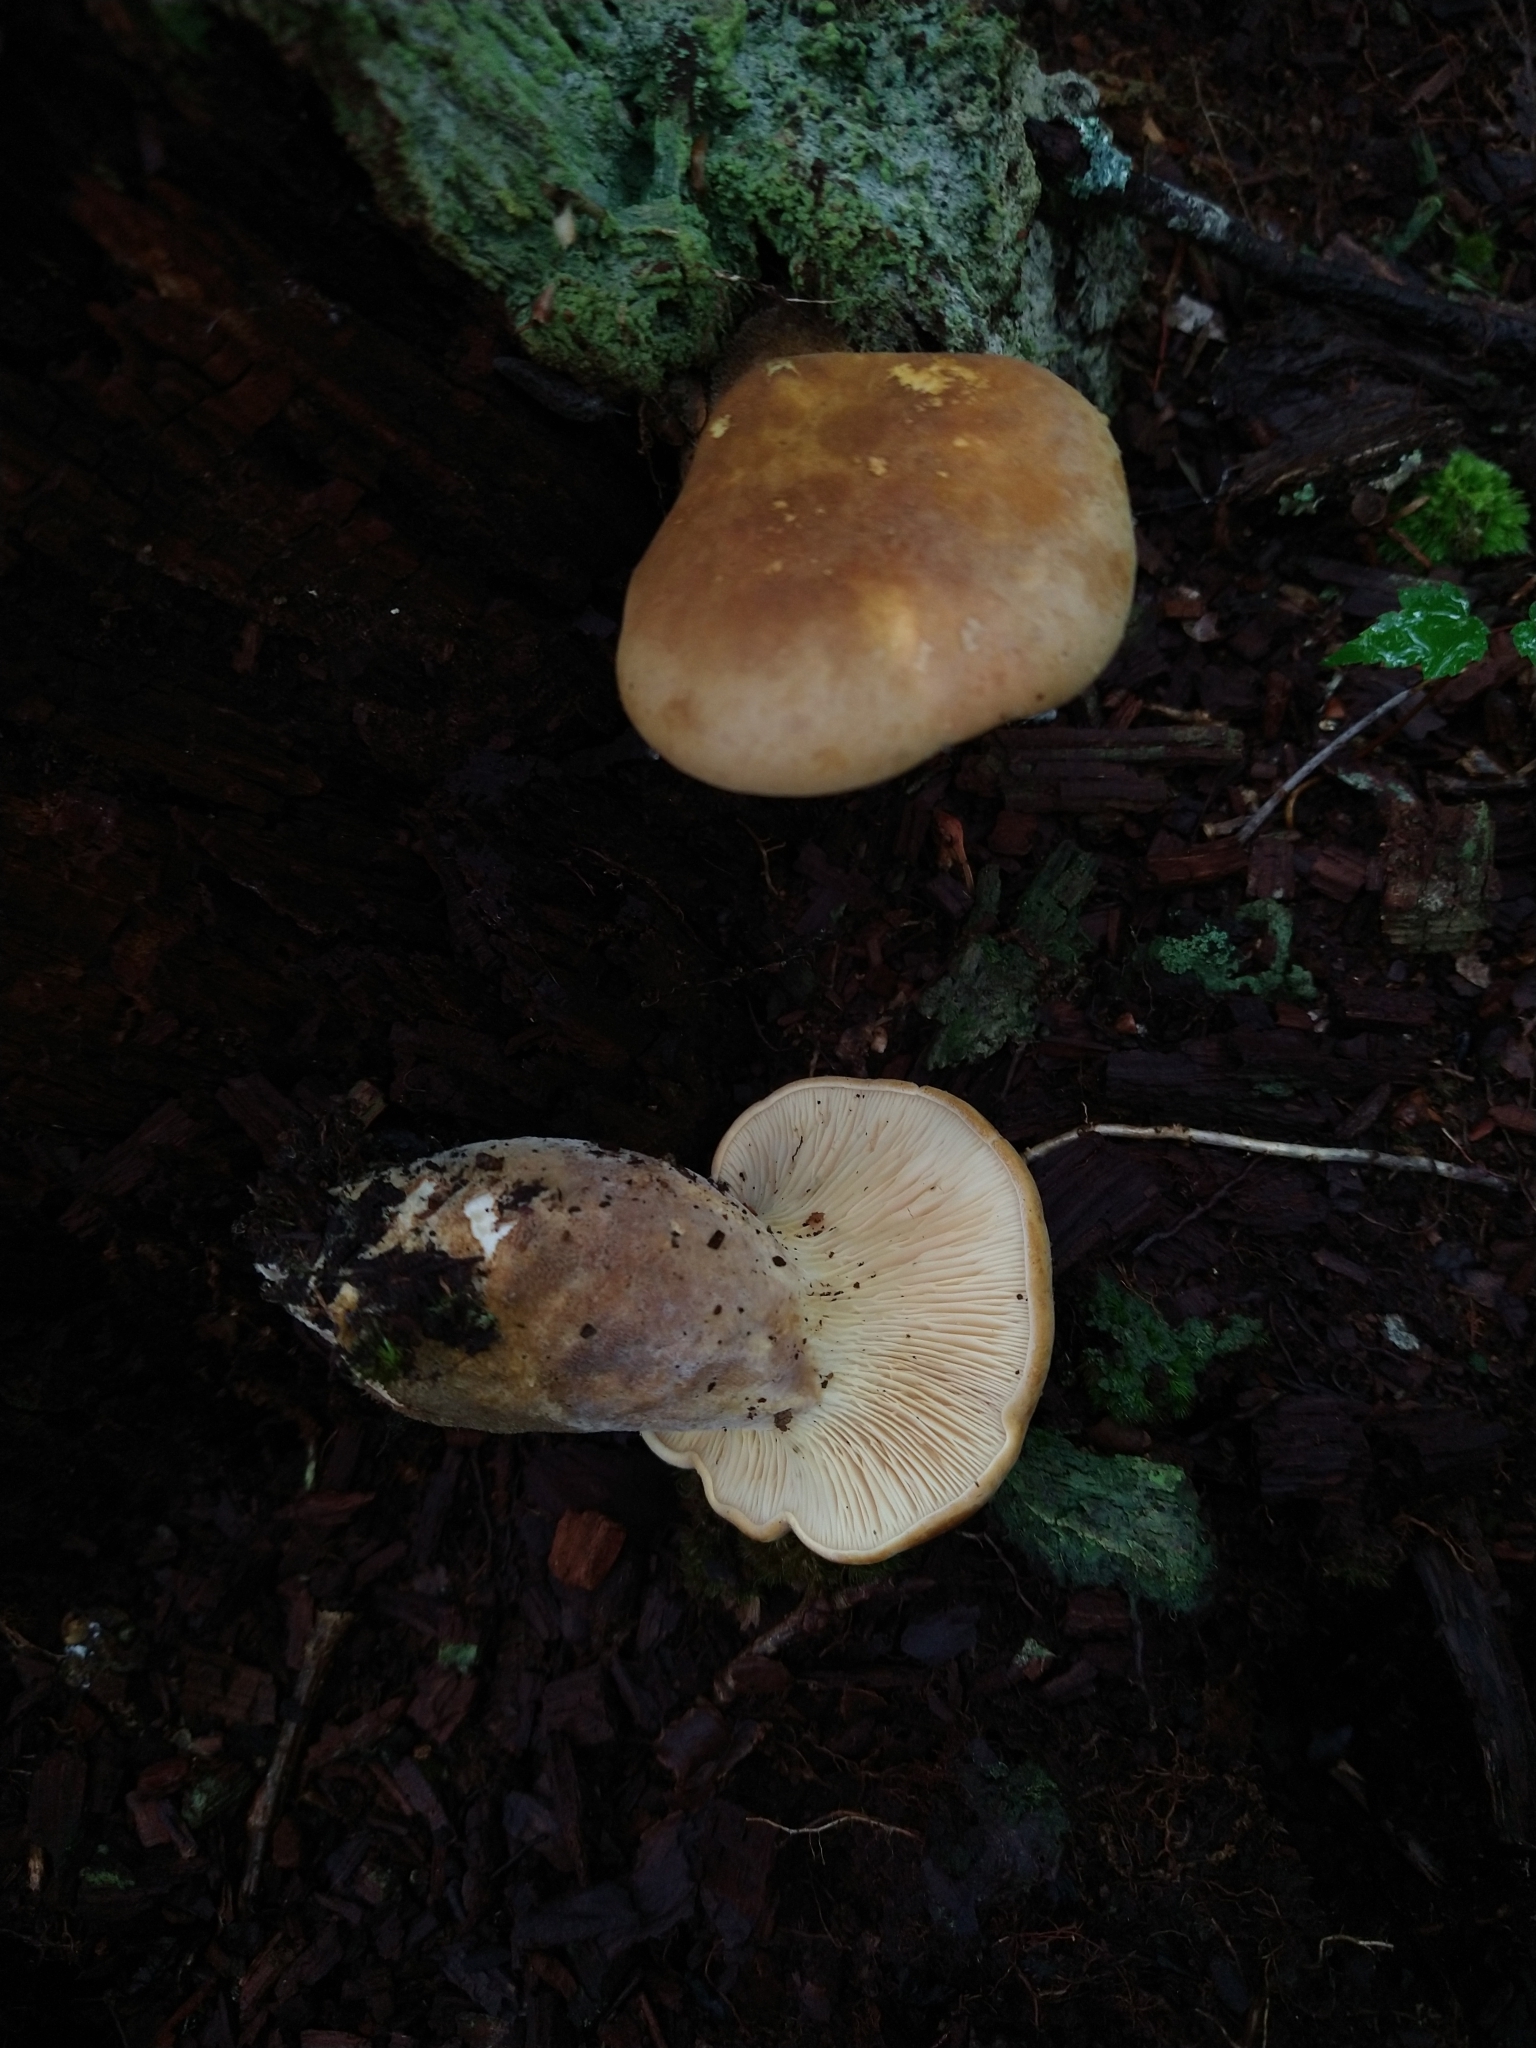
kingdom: Fungi
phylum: Basidiomycota
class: Agaricomycetes
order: Boletales
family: Tapinellaceae
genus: Tapinella
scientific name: Tapinella atrotomentosa
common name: Velvet rollrim
